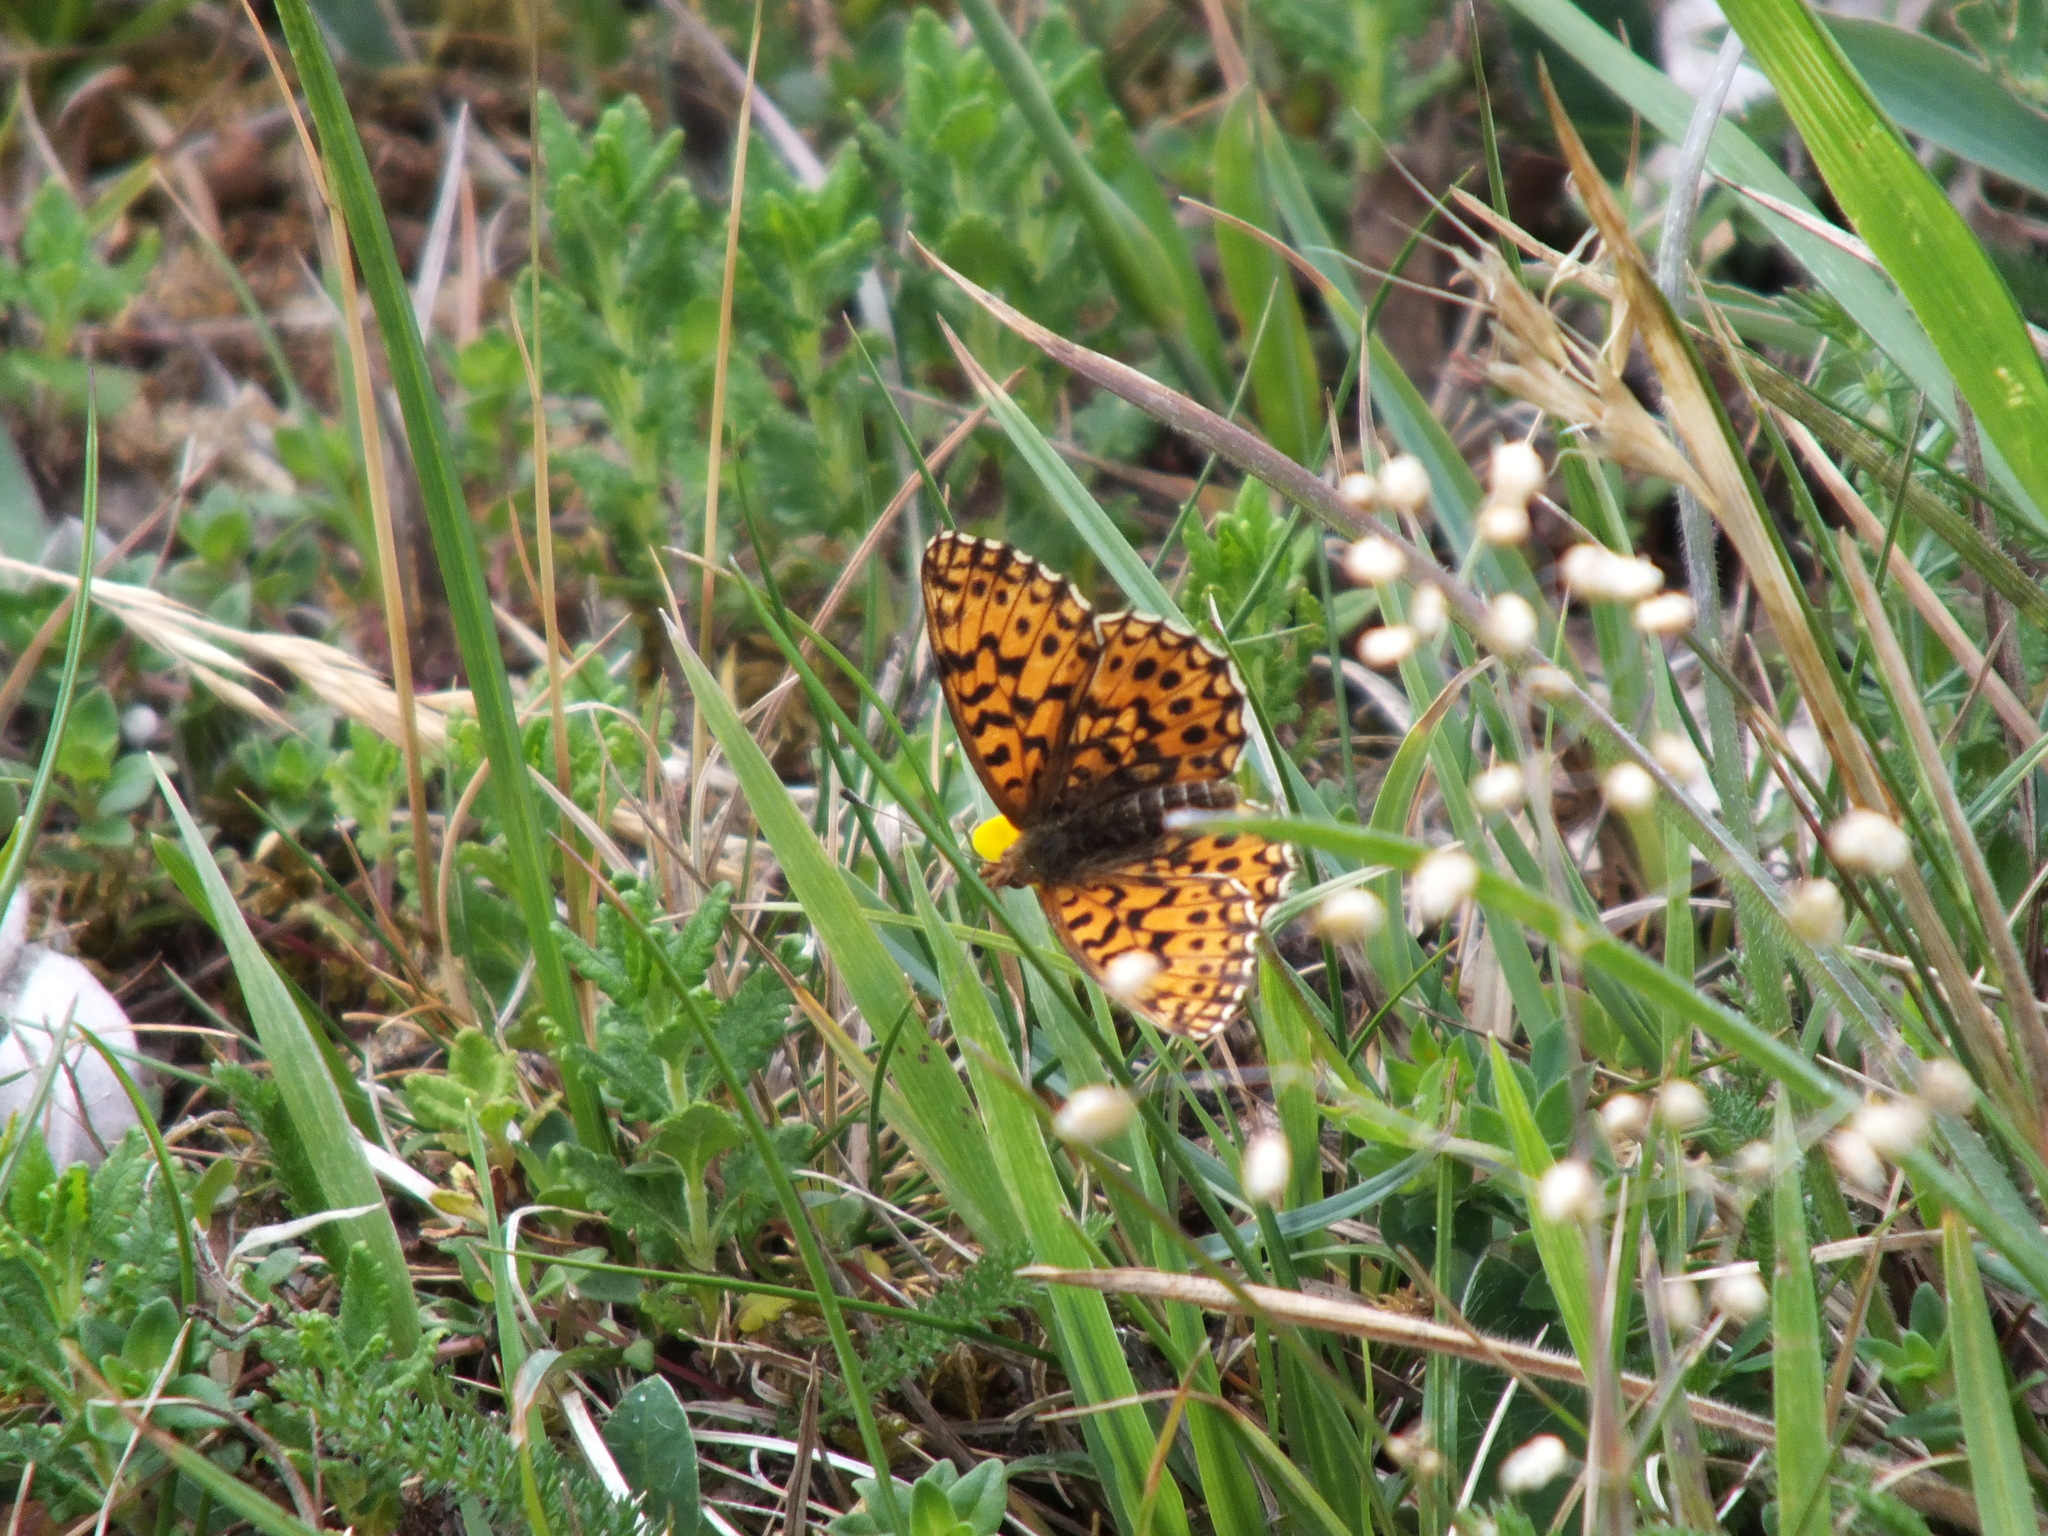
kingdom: Animalia
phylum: Arthropoda
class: Insecta
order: Lepidoptera
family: Nymphalidae
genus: Boloria
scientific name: Boloria dia
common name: Weaver's fritillary
